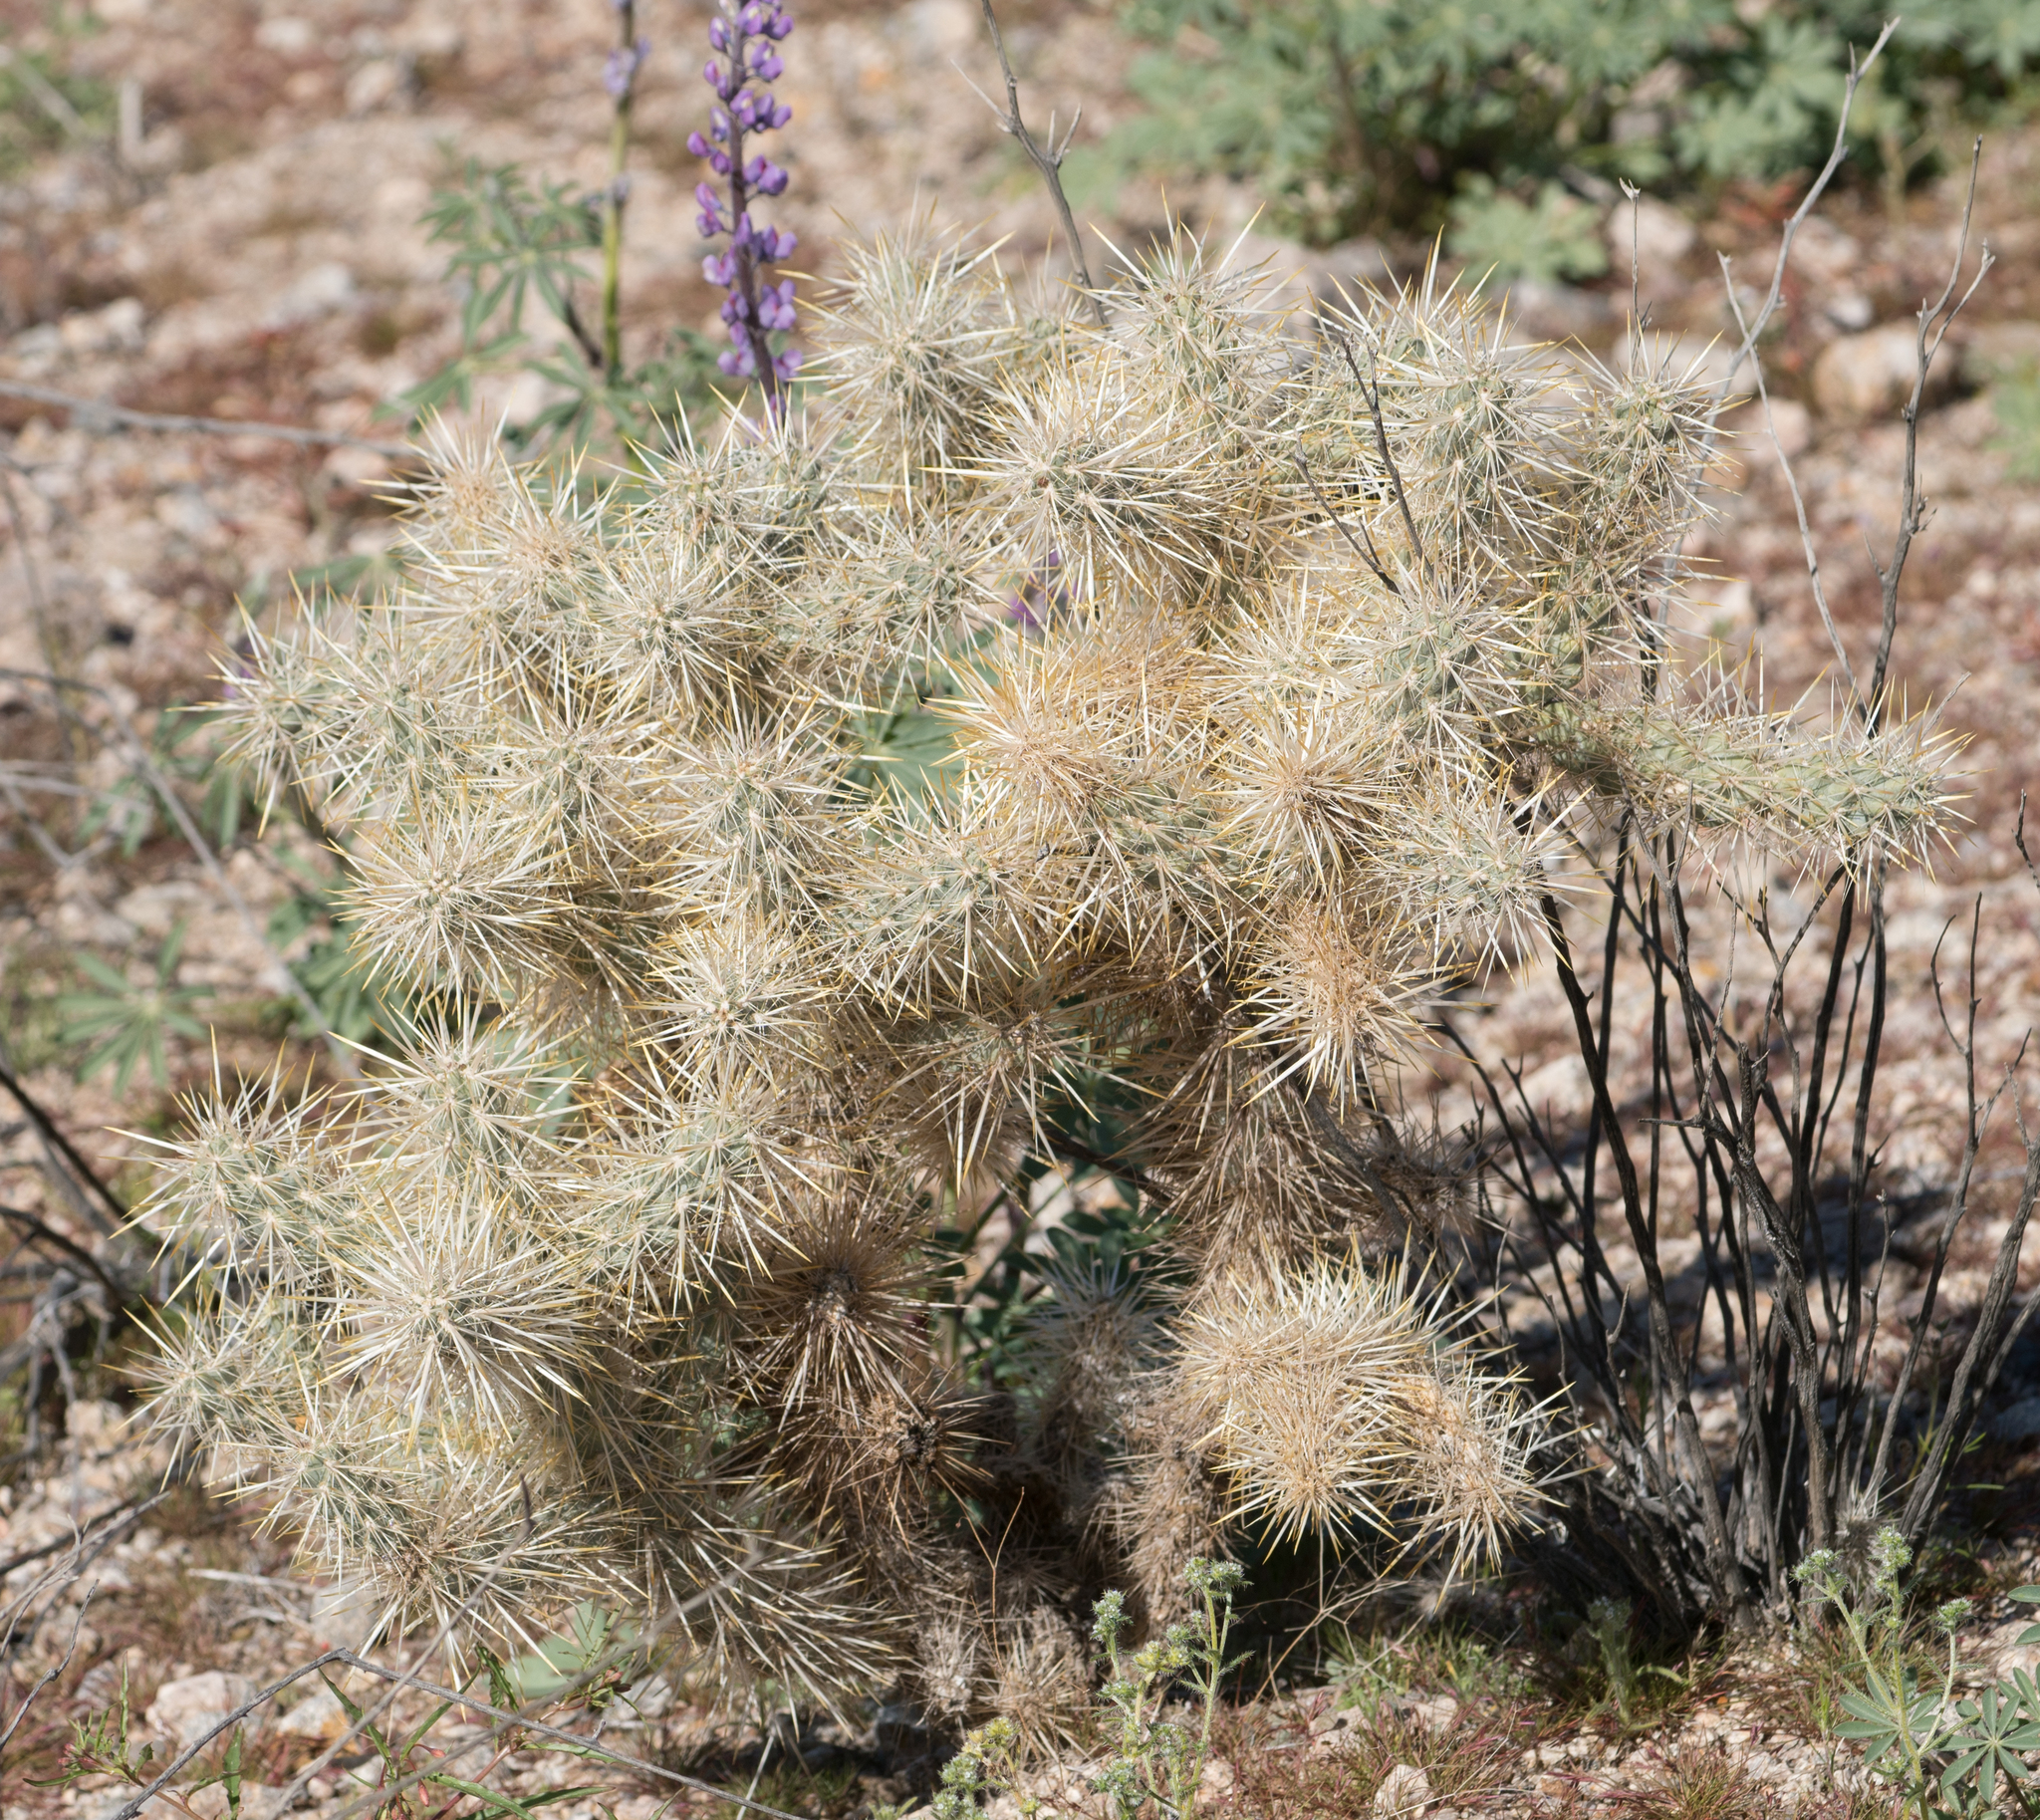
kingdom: Plantae
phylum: Tracheophyta
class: Magnoliopsida
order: Caryophyllales
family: Cactaceae
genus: Cylindropuntia
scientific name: Cylindropuntia echinocarpa
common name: Ground cholla
